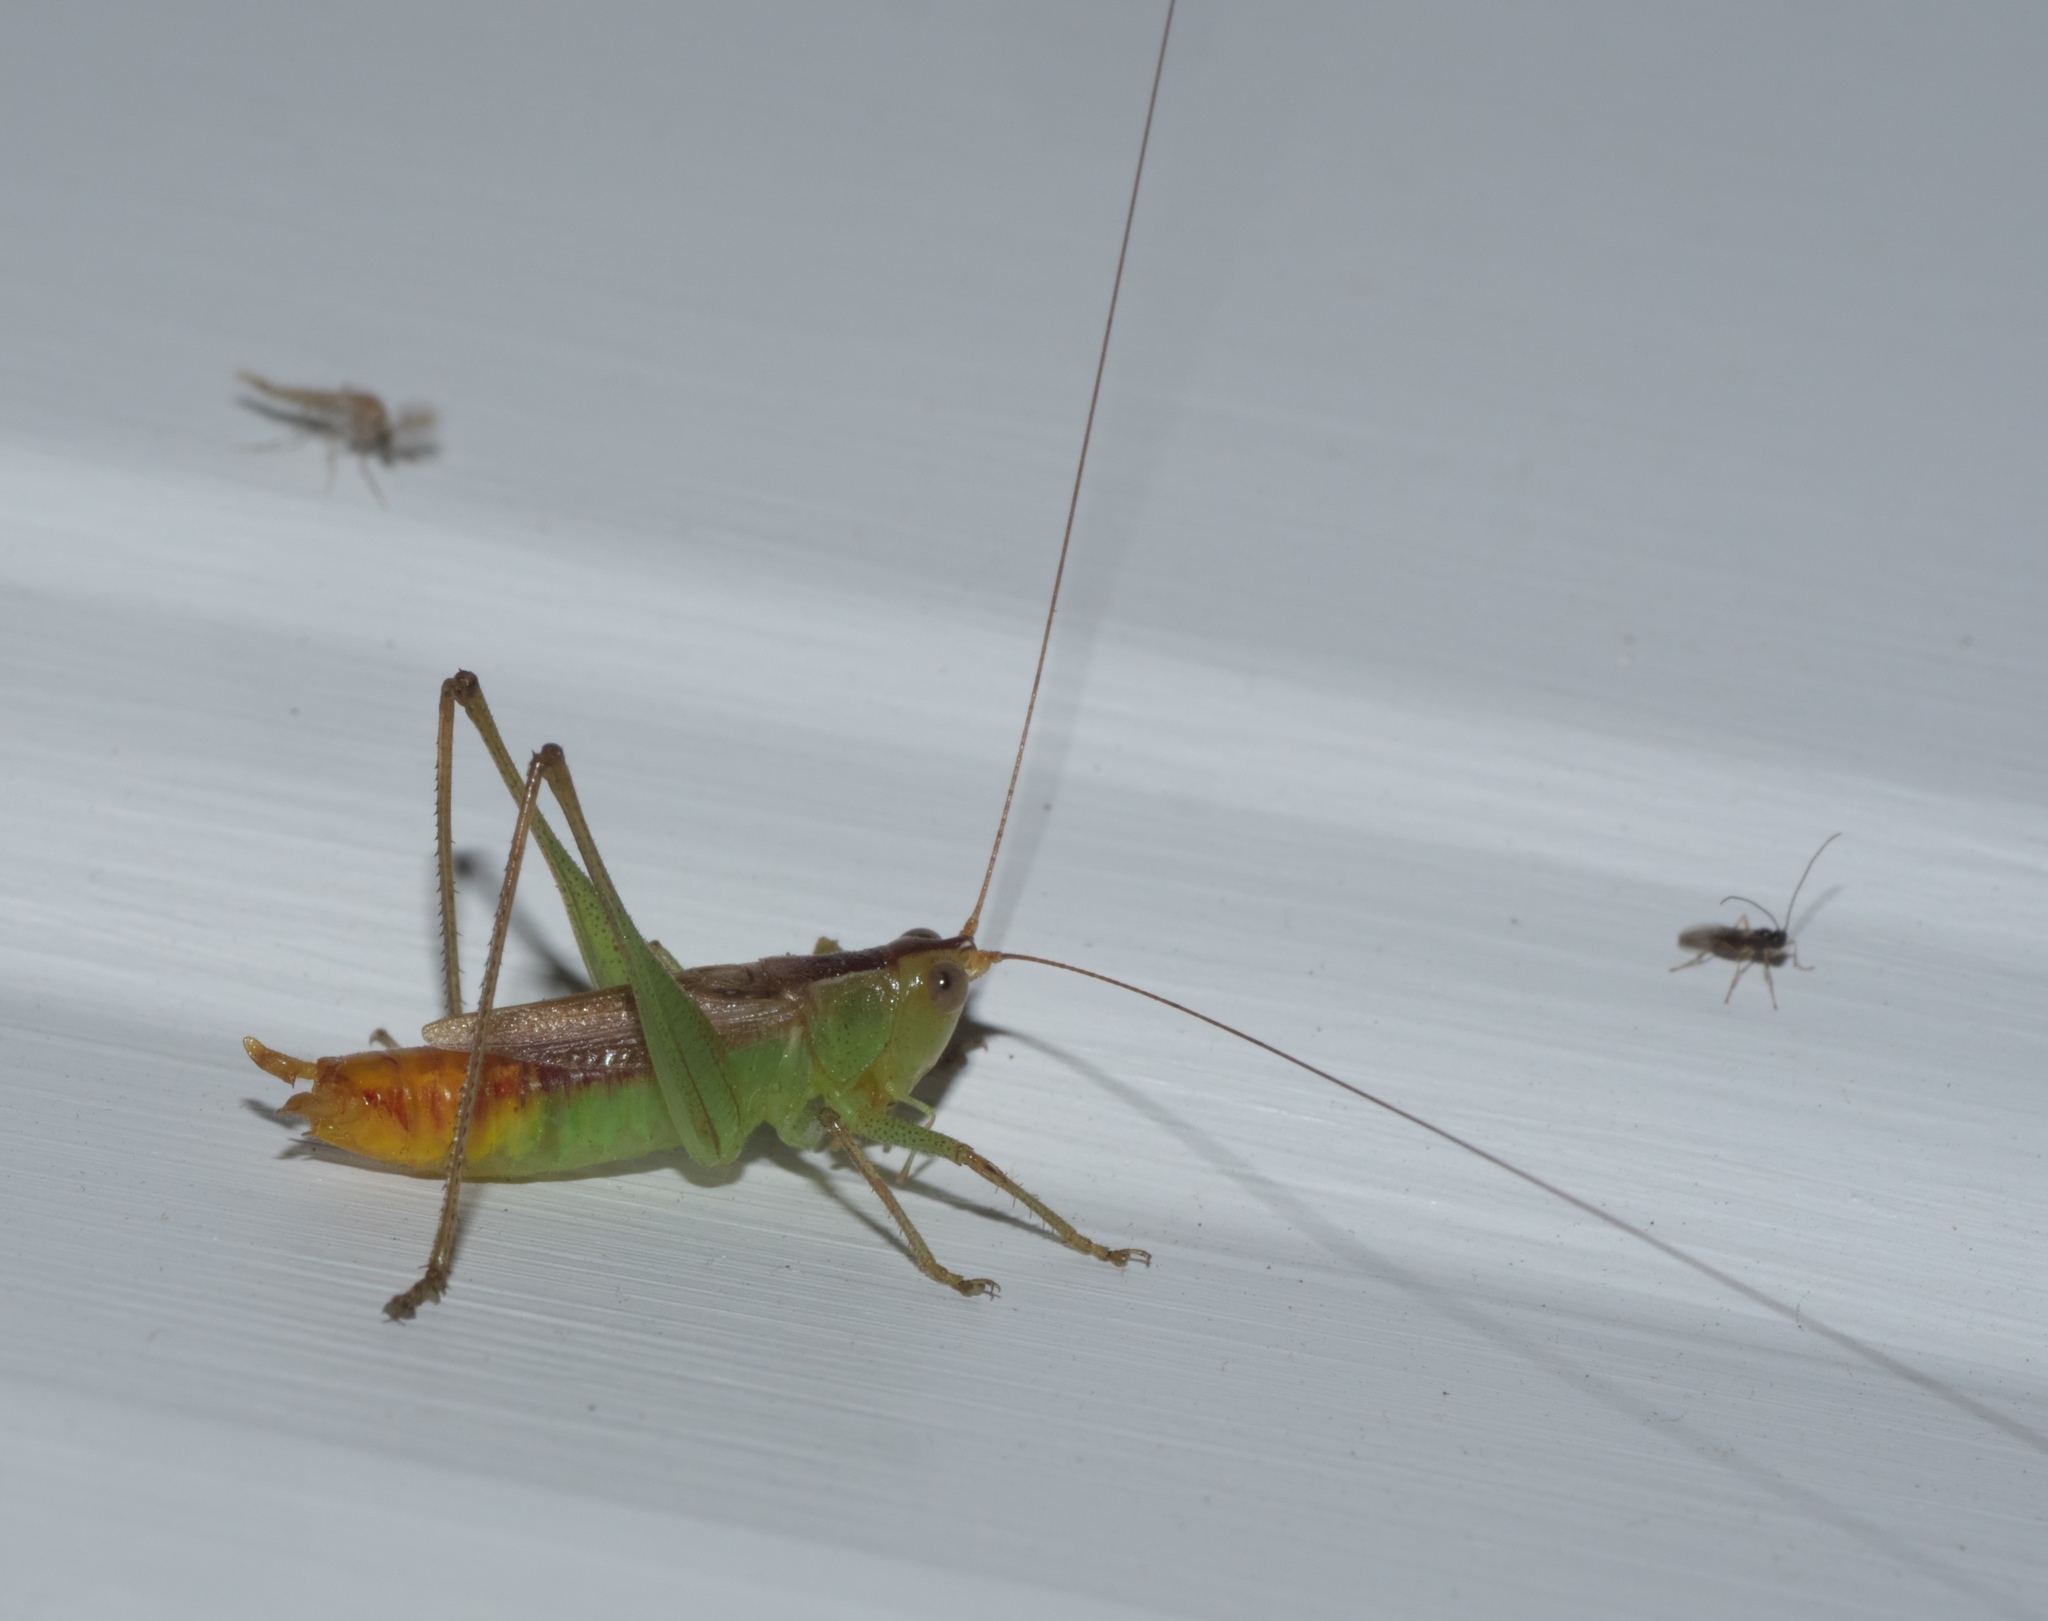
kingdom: Animalia
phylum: Arthropoda
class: Insecta
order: Orthoptera
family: Tettigoniidae
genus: Conocephalus
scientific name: Conocephalus brevipennis
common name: Short-winged meadow katydid
